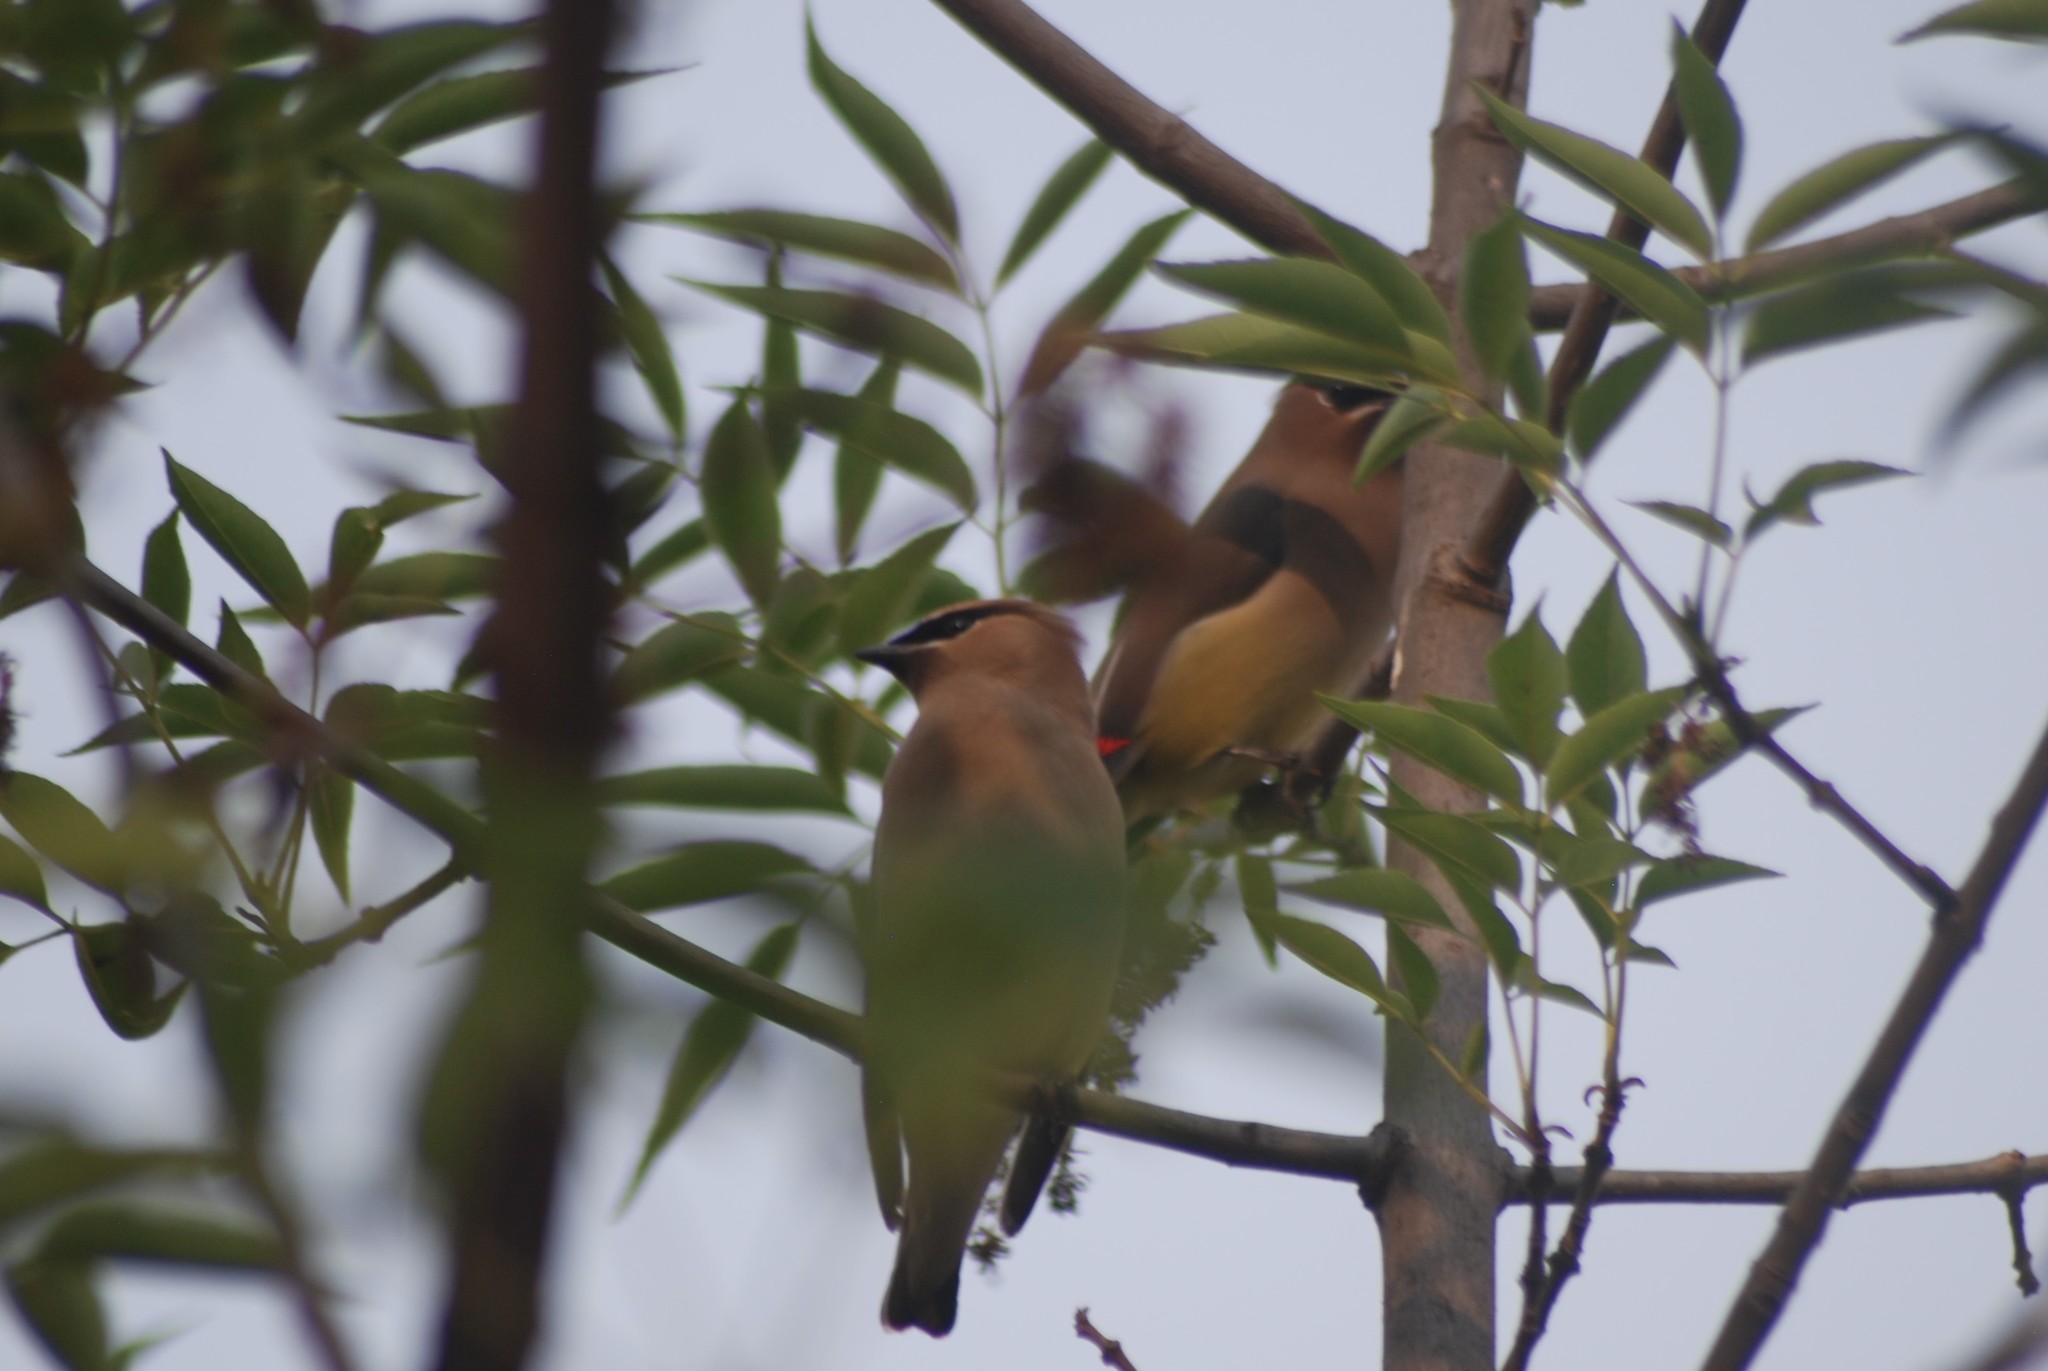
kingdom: Animalia
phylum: Chordata
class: Aves
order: Passeriformes
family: Bombycillidae
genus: Bombycilla
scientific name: Bombycilla cedrorum
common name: Cedar waxwing
